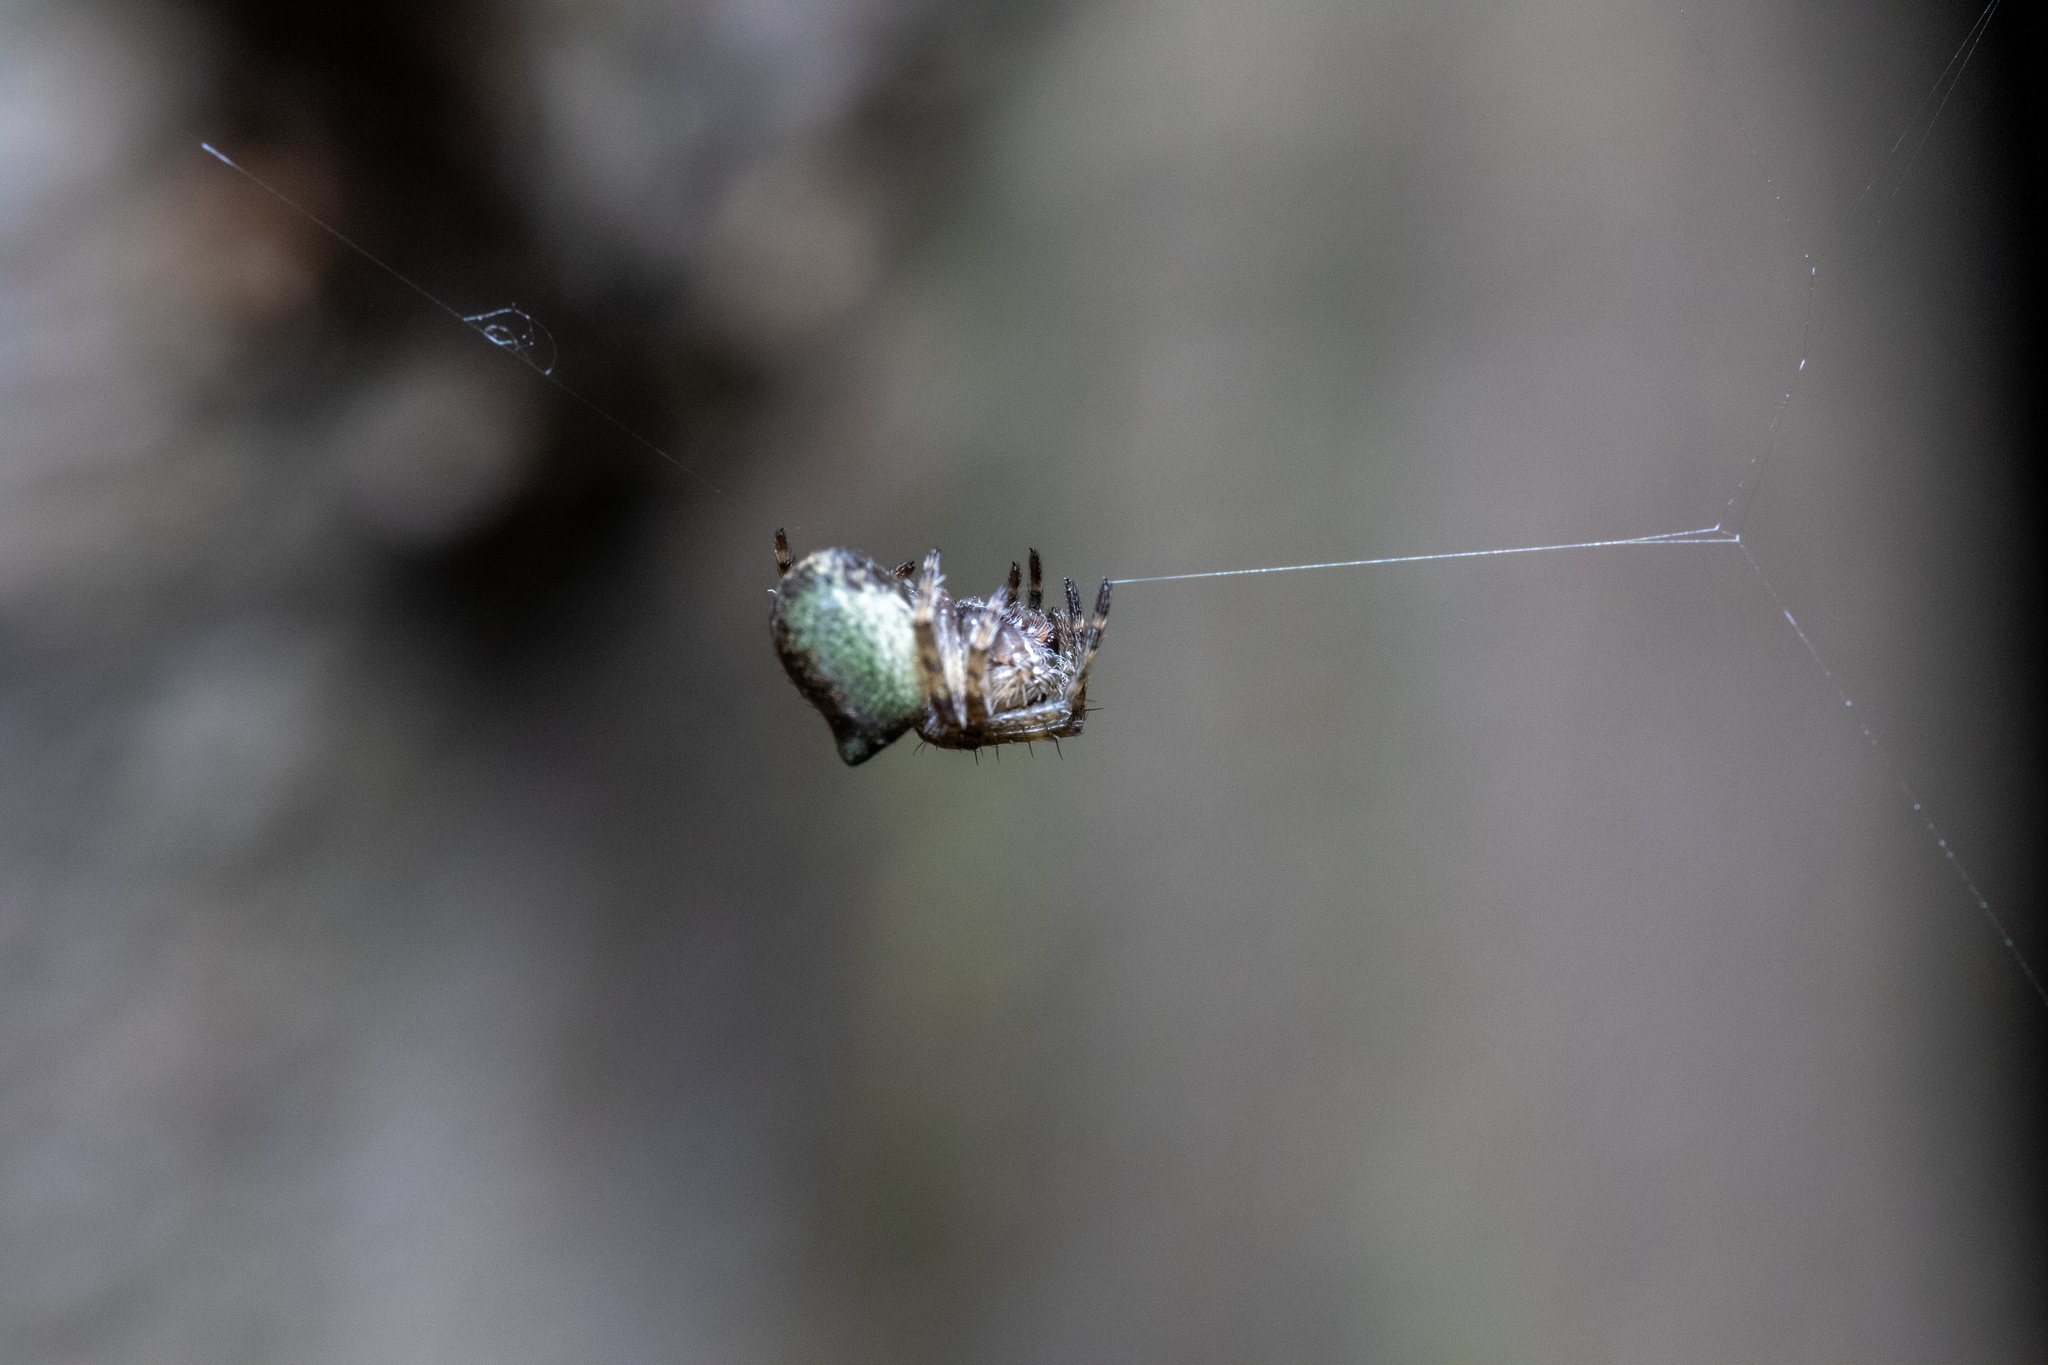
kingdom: Animalia
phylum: Arthropoda
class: Arachnida
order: Araneae
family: Araneidae
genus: Gibbaranea
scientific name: Gibbaranea gibbosa
